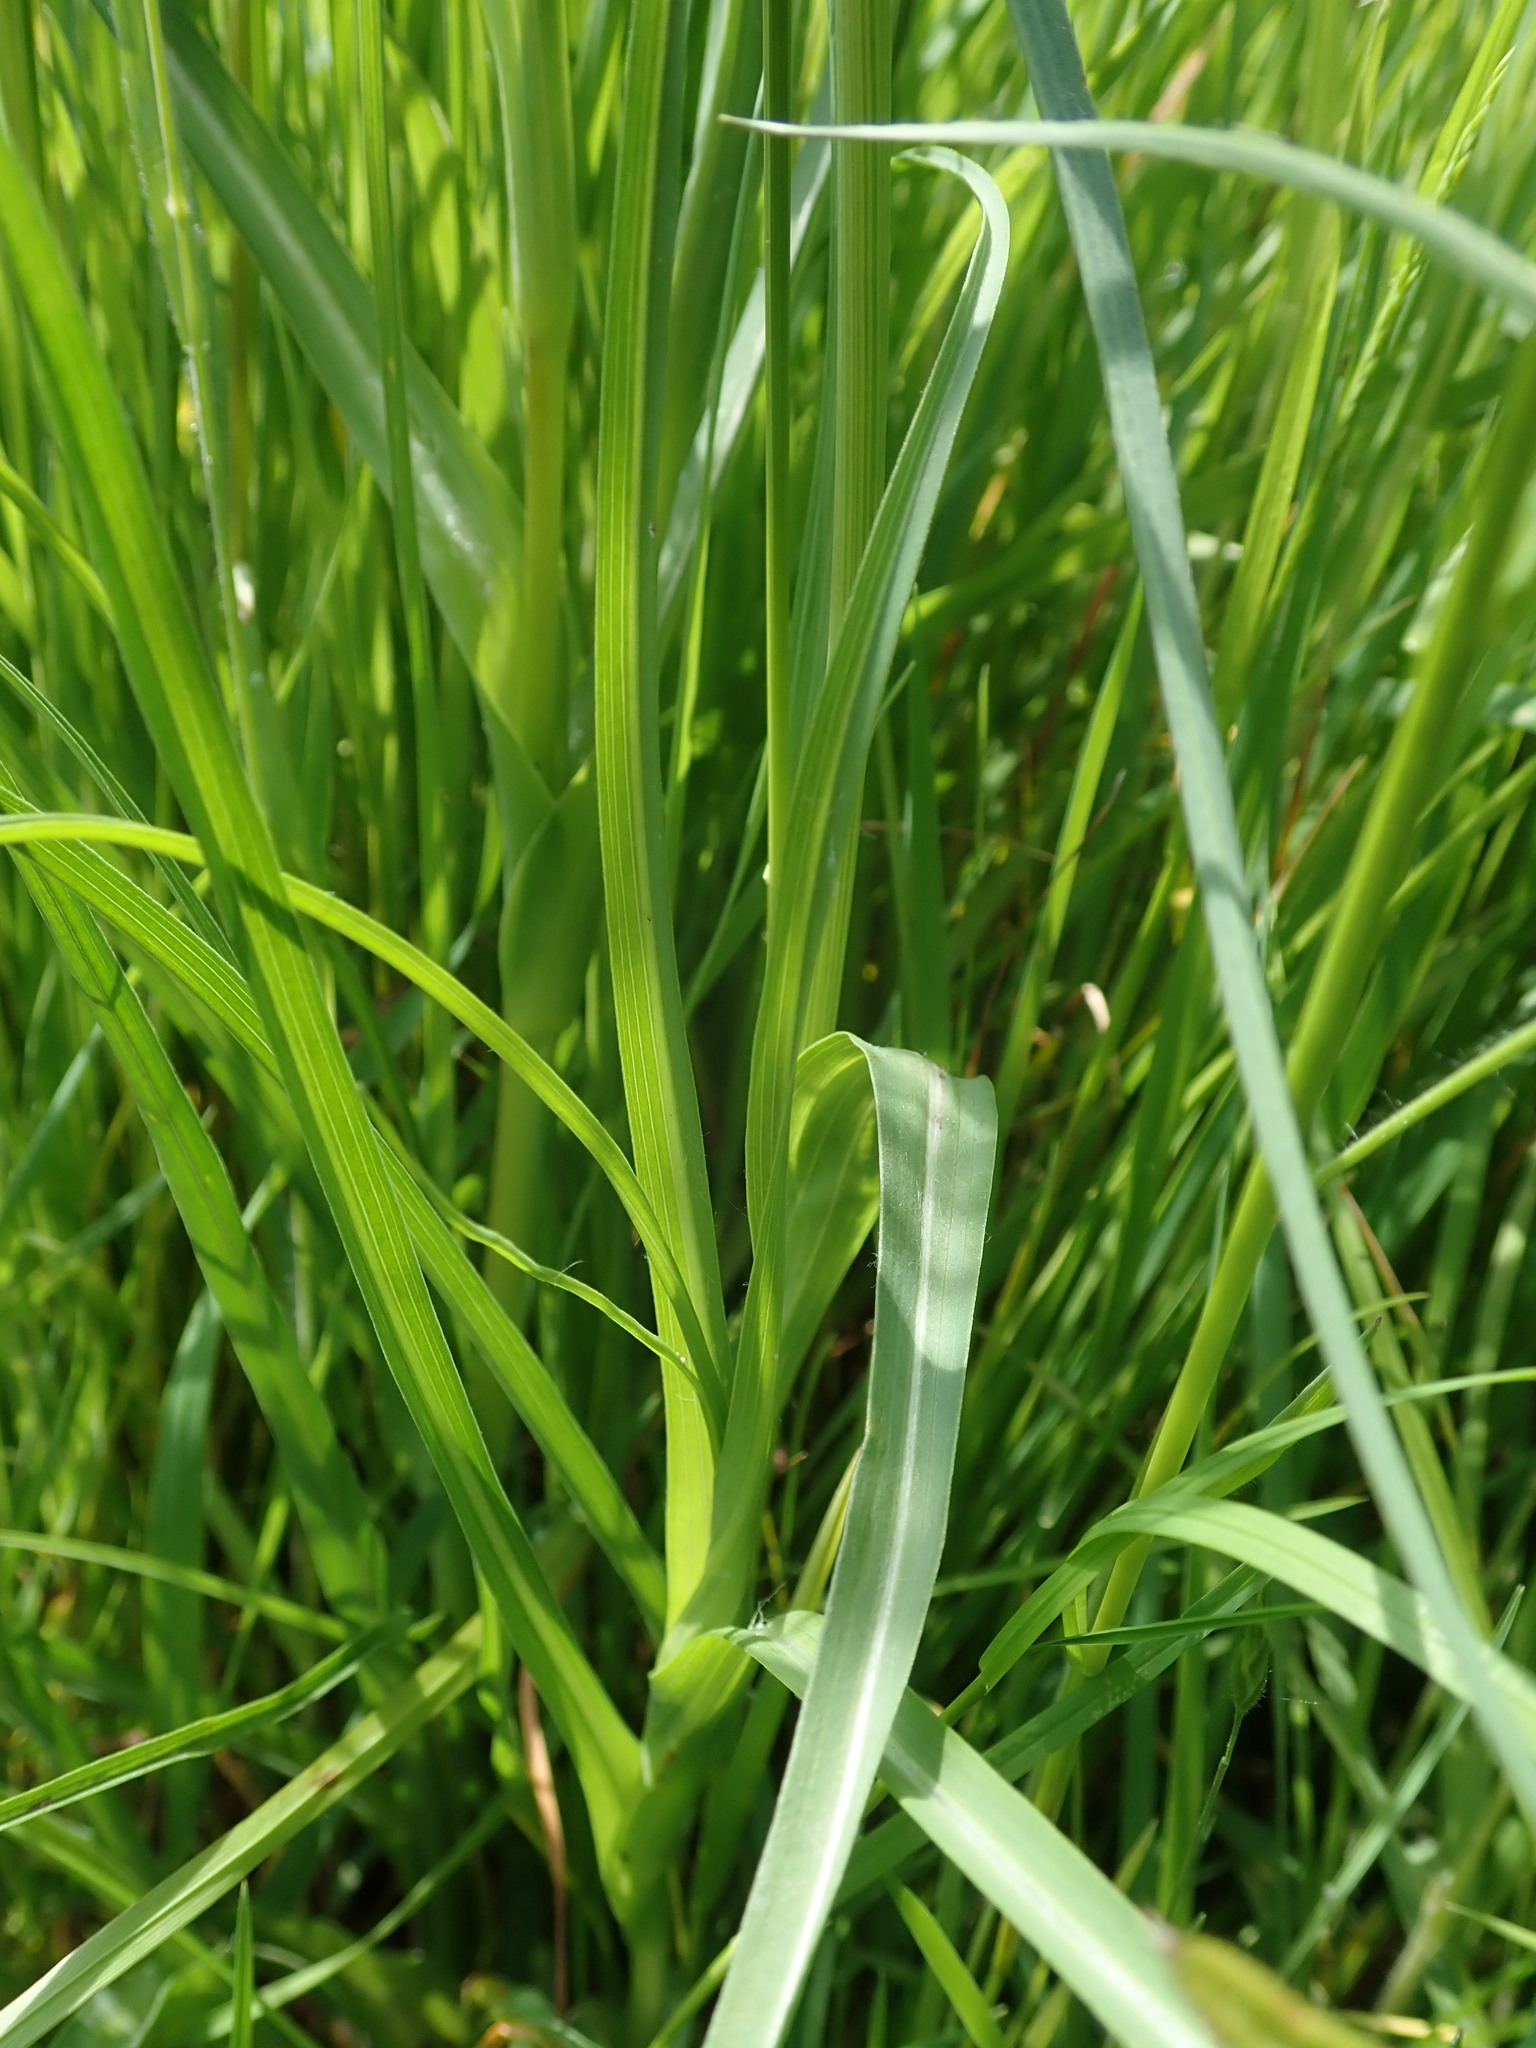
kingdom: Plantae
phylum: Tracheophyta
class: Magnoliopsida
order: Asterales
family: Asteraceae
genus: Tragopogon
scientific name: Tragopogon minor
